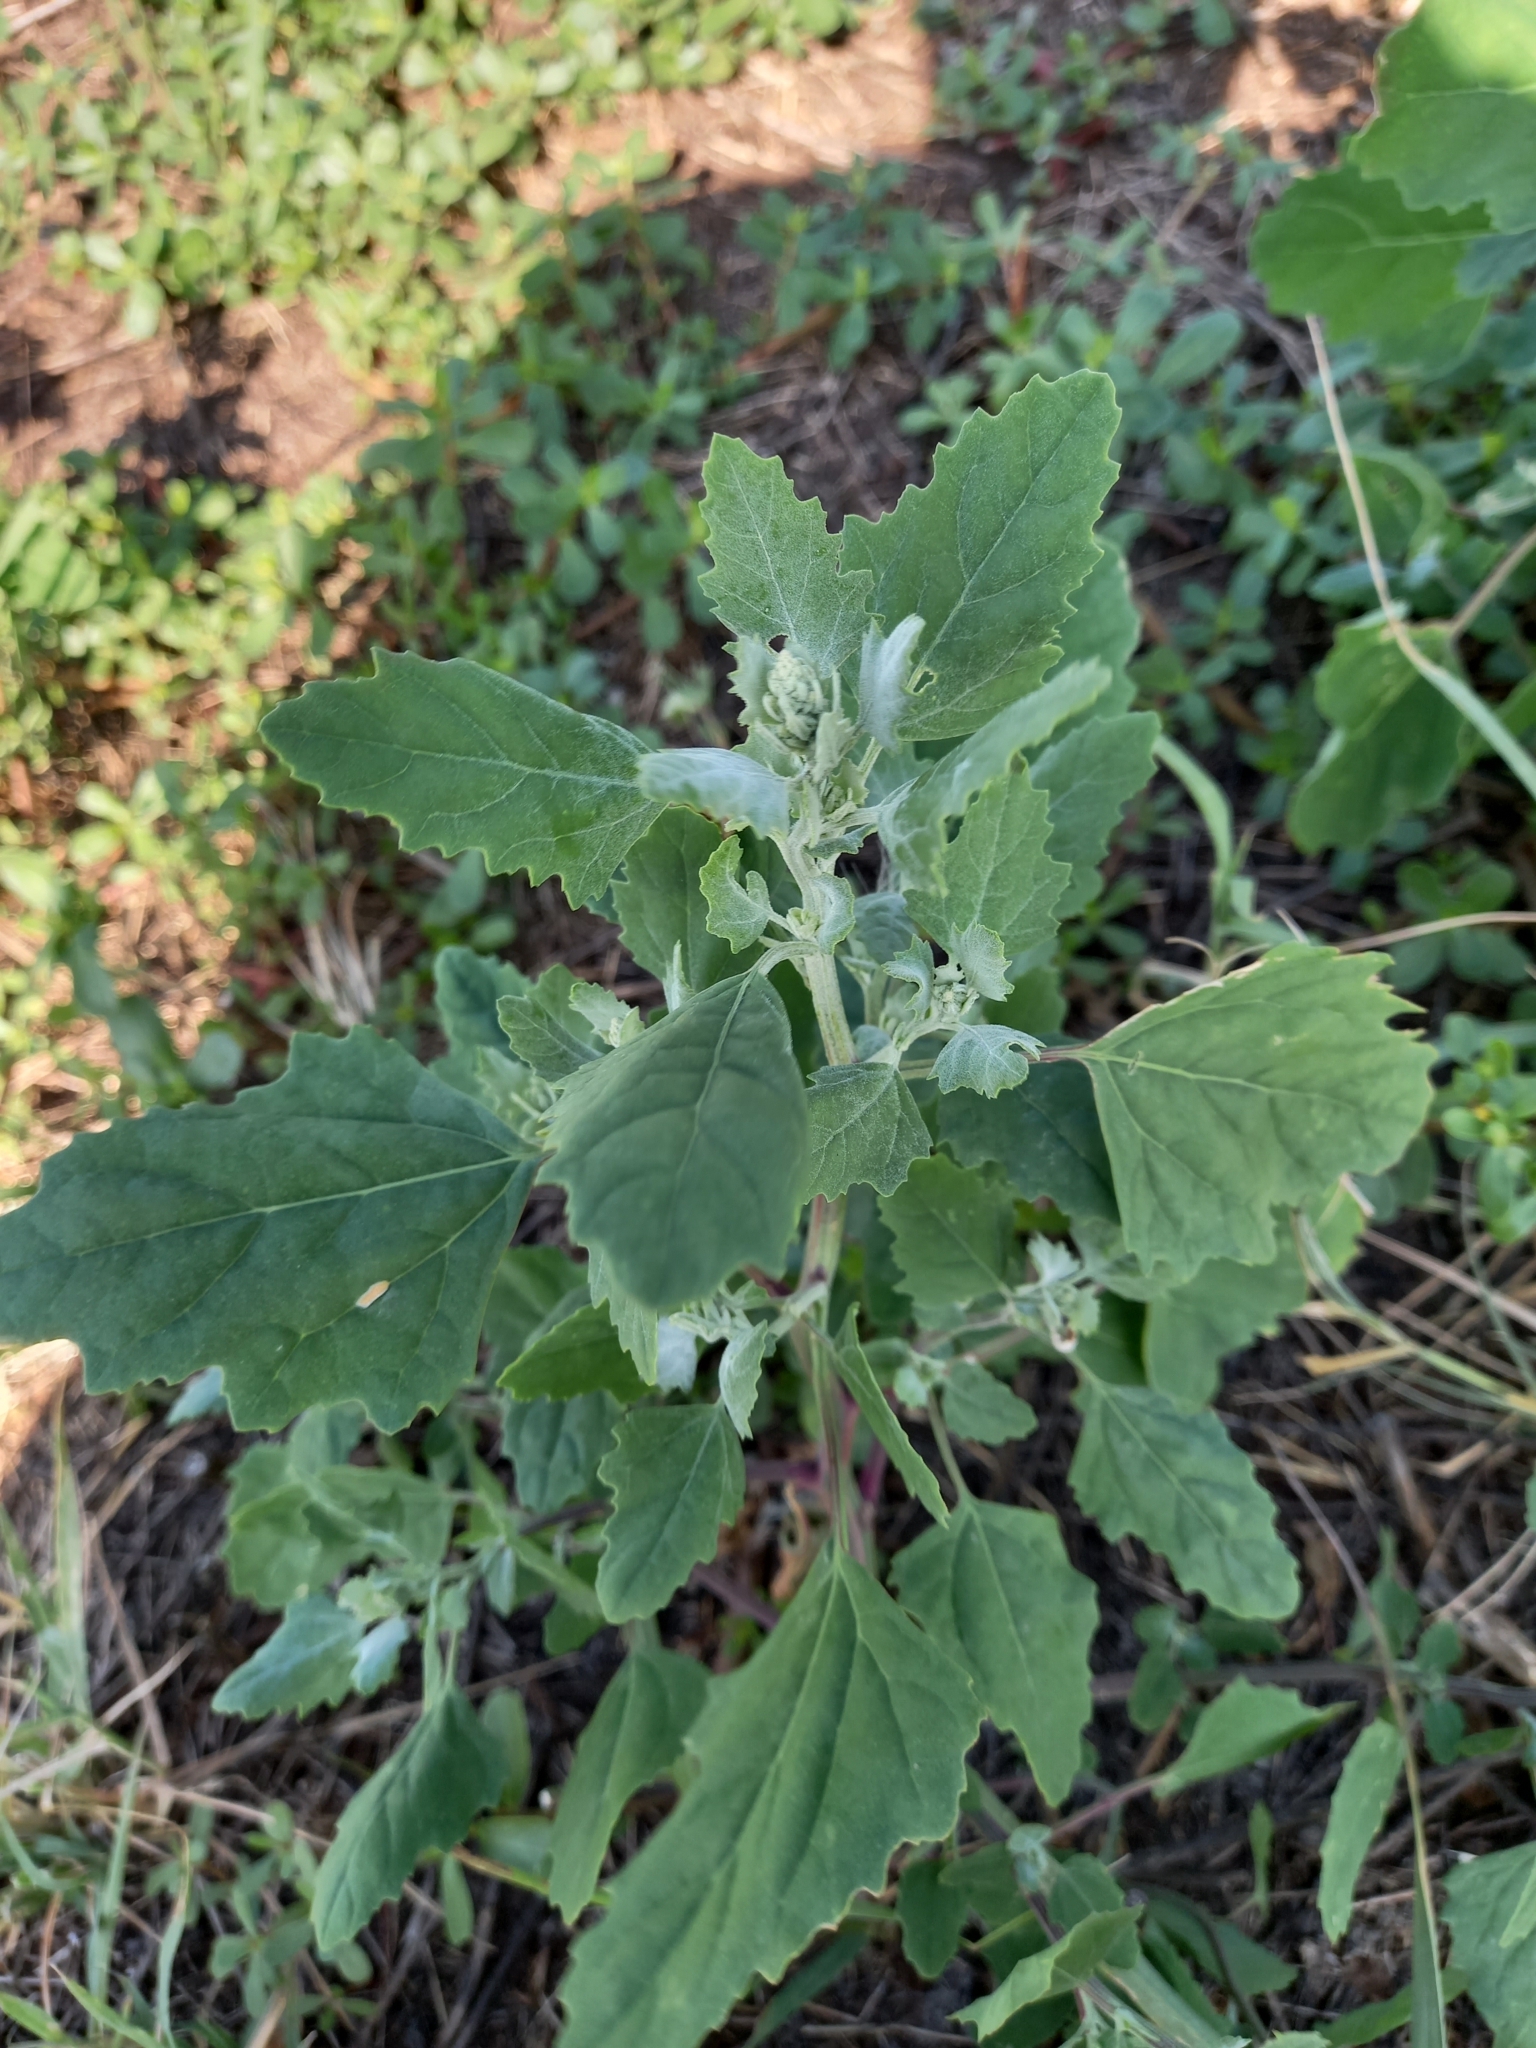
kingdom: Plantae
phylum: Tracheophyta
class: Magnoliopsida
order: Caryophyllales
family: Amaranthaceae
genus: Chenopodium
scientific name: Chenopodium album
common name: Fat-hen
